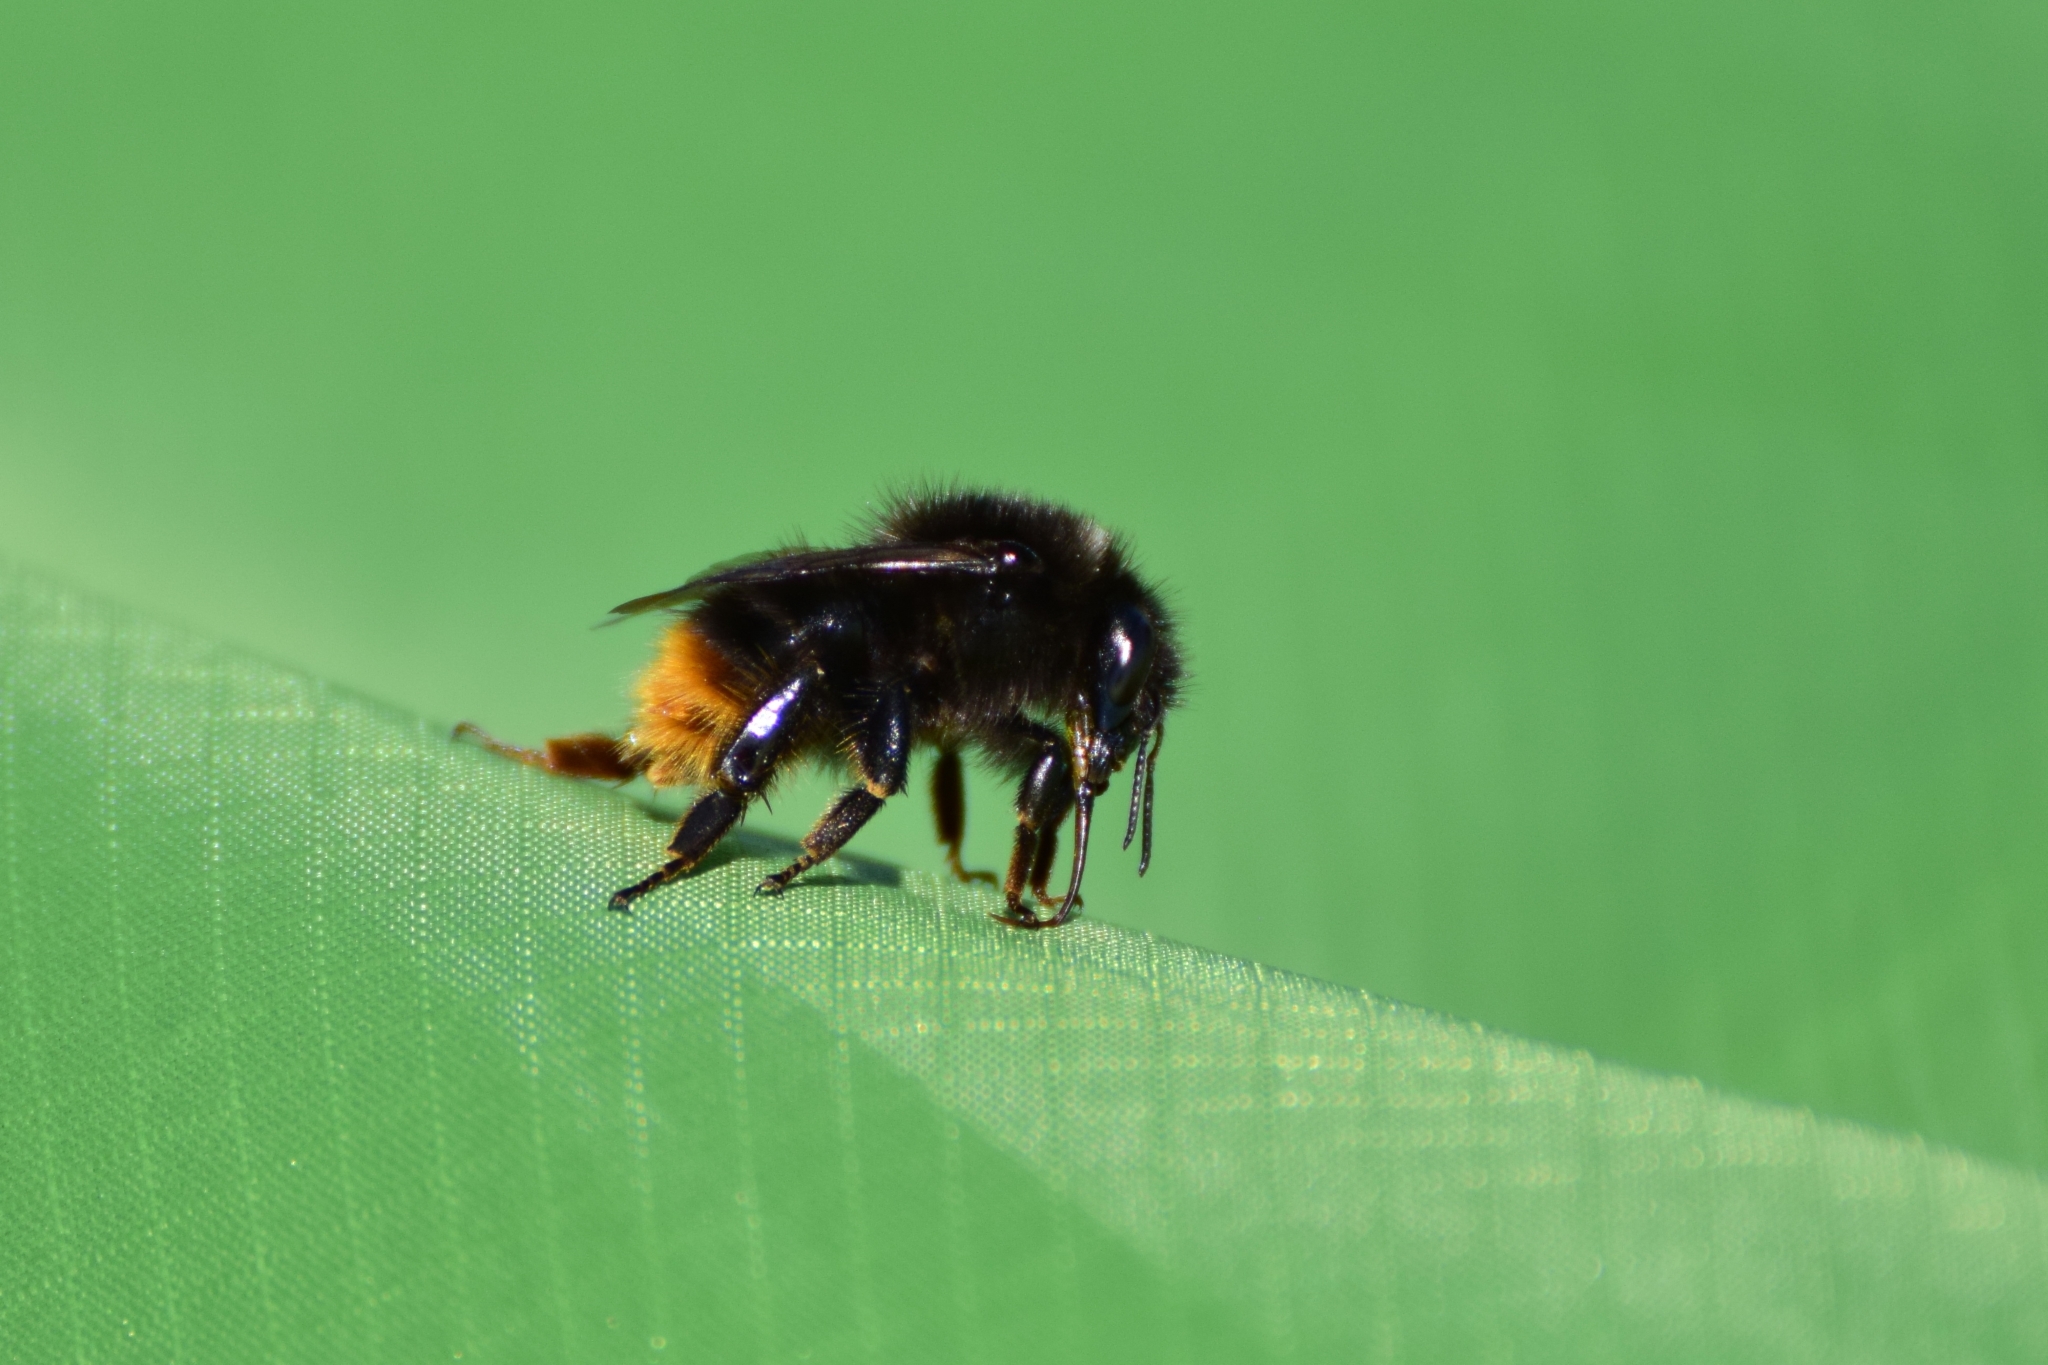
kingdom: Animalia
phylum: Arthropoda
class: Insecta
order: Hymenoptera
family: Apidae
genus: Bombus
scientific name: Bombus ruderarius
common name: Red-shanked carder-bee
